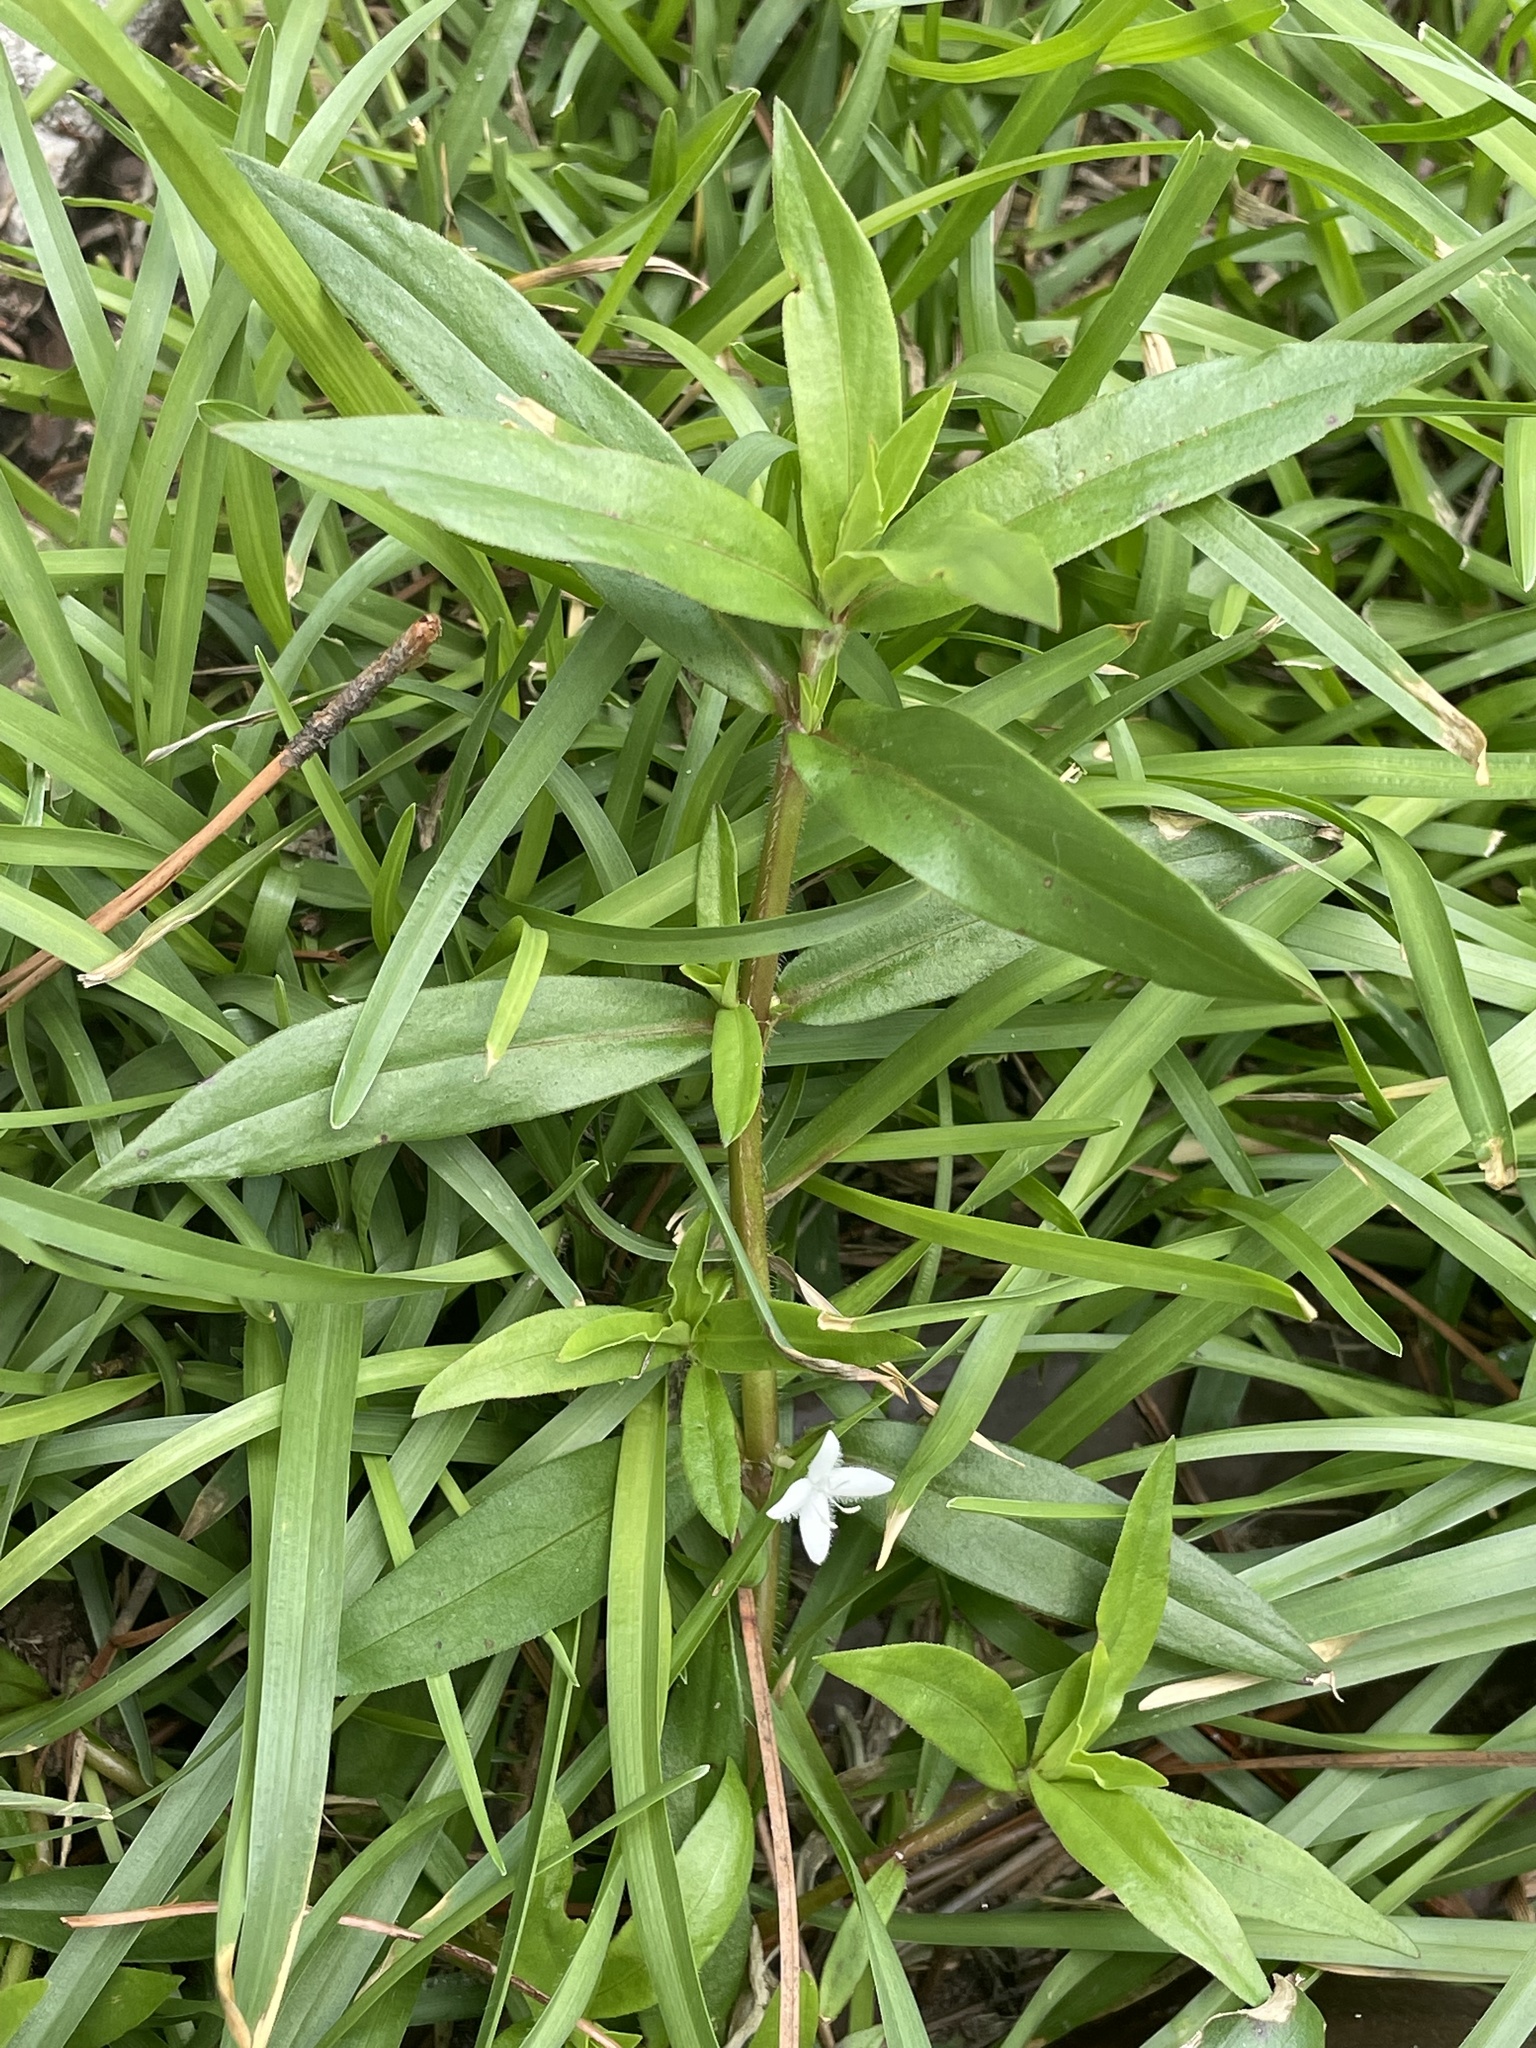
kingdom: Plantae
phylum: Tracheophyta
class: Magnoliopsida
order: Gentianales
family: Rubiaceae
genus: Diodia
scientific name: Diodia virginiana
